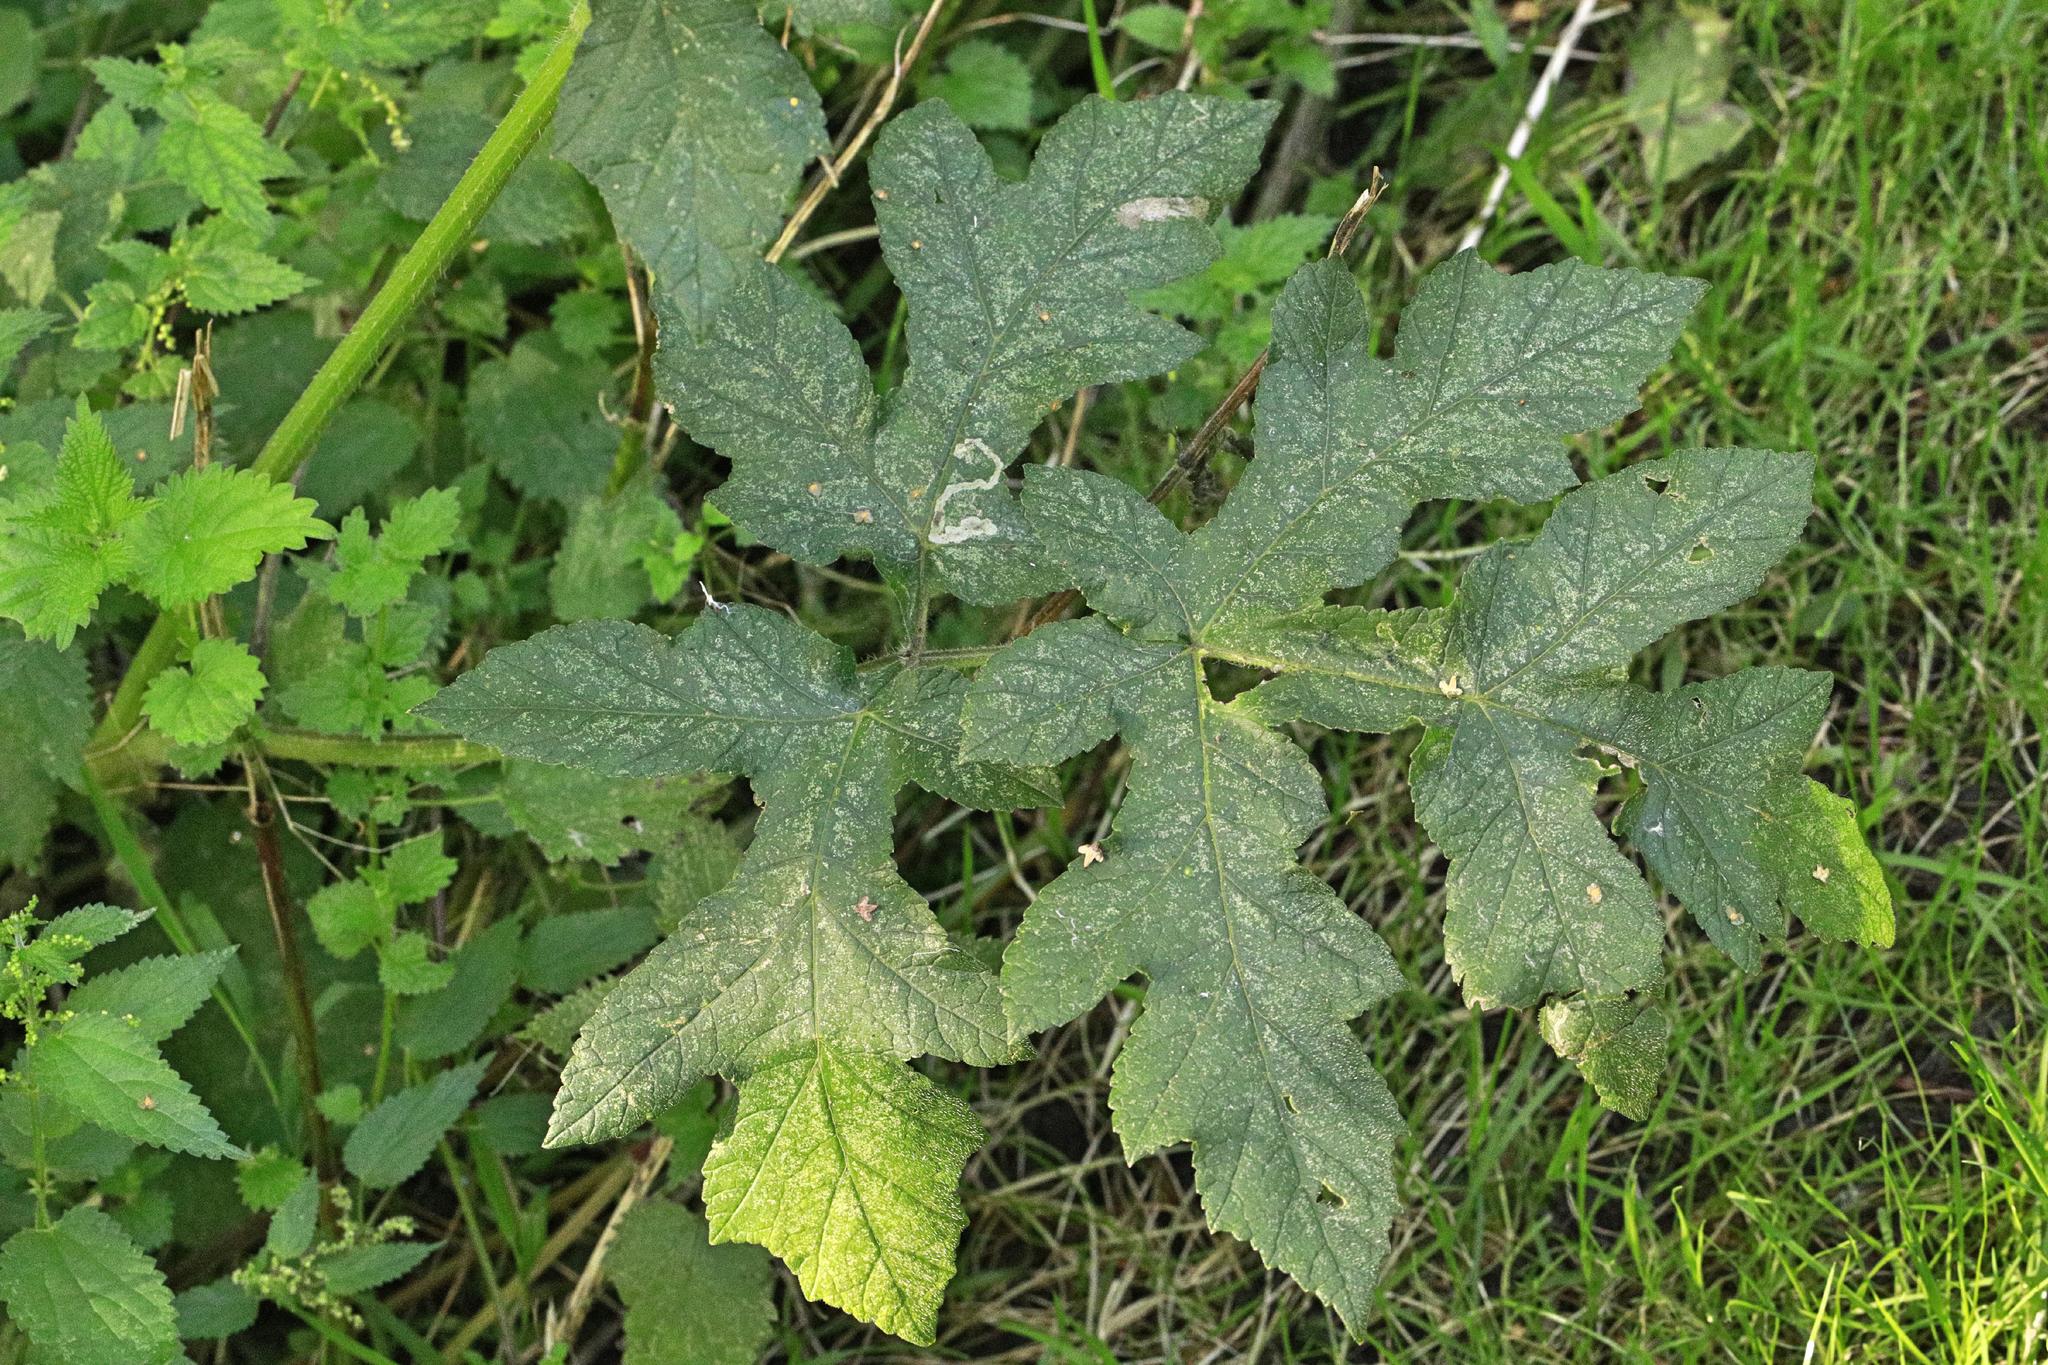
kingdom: Plantae
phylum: Tracheophyta
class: Magnoliopsida
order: Apiales
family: Apiaceae
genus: Heracleum
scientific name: Heracleum sphondylium
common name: Hogweed
